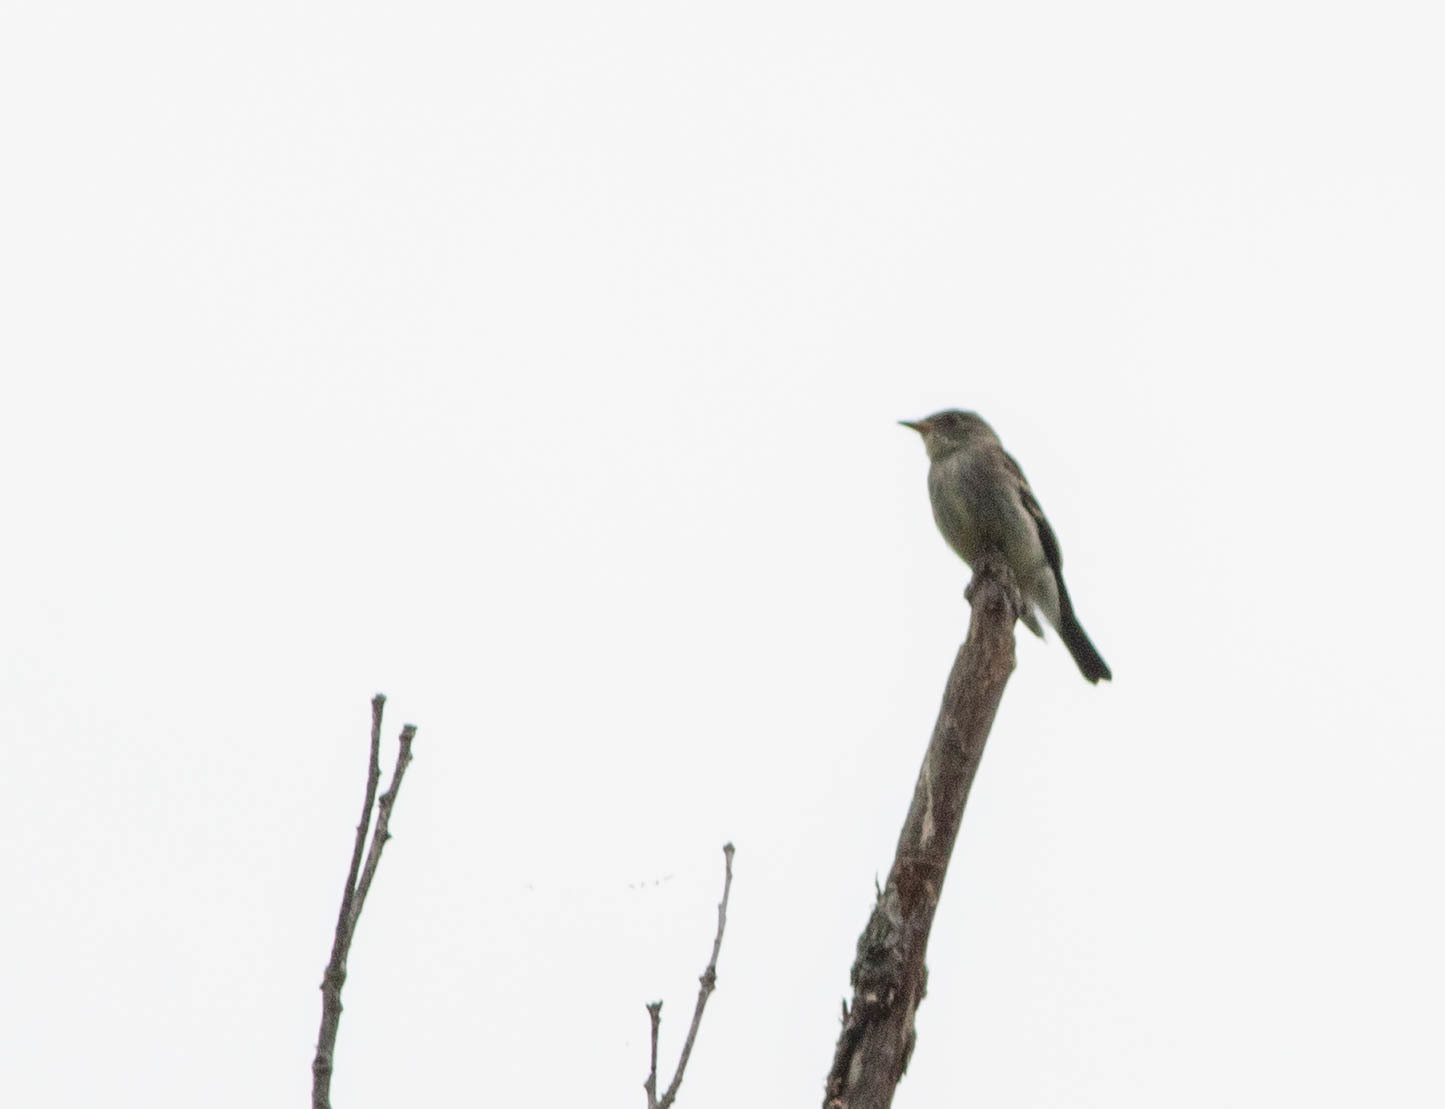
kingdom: Animalia
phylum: Chordata
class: Aves
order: Passeriformes
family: Tyrannidae
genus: Contopus
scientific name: Contopus virens
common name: Eastern wood-pewee
